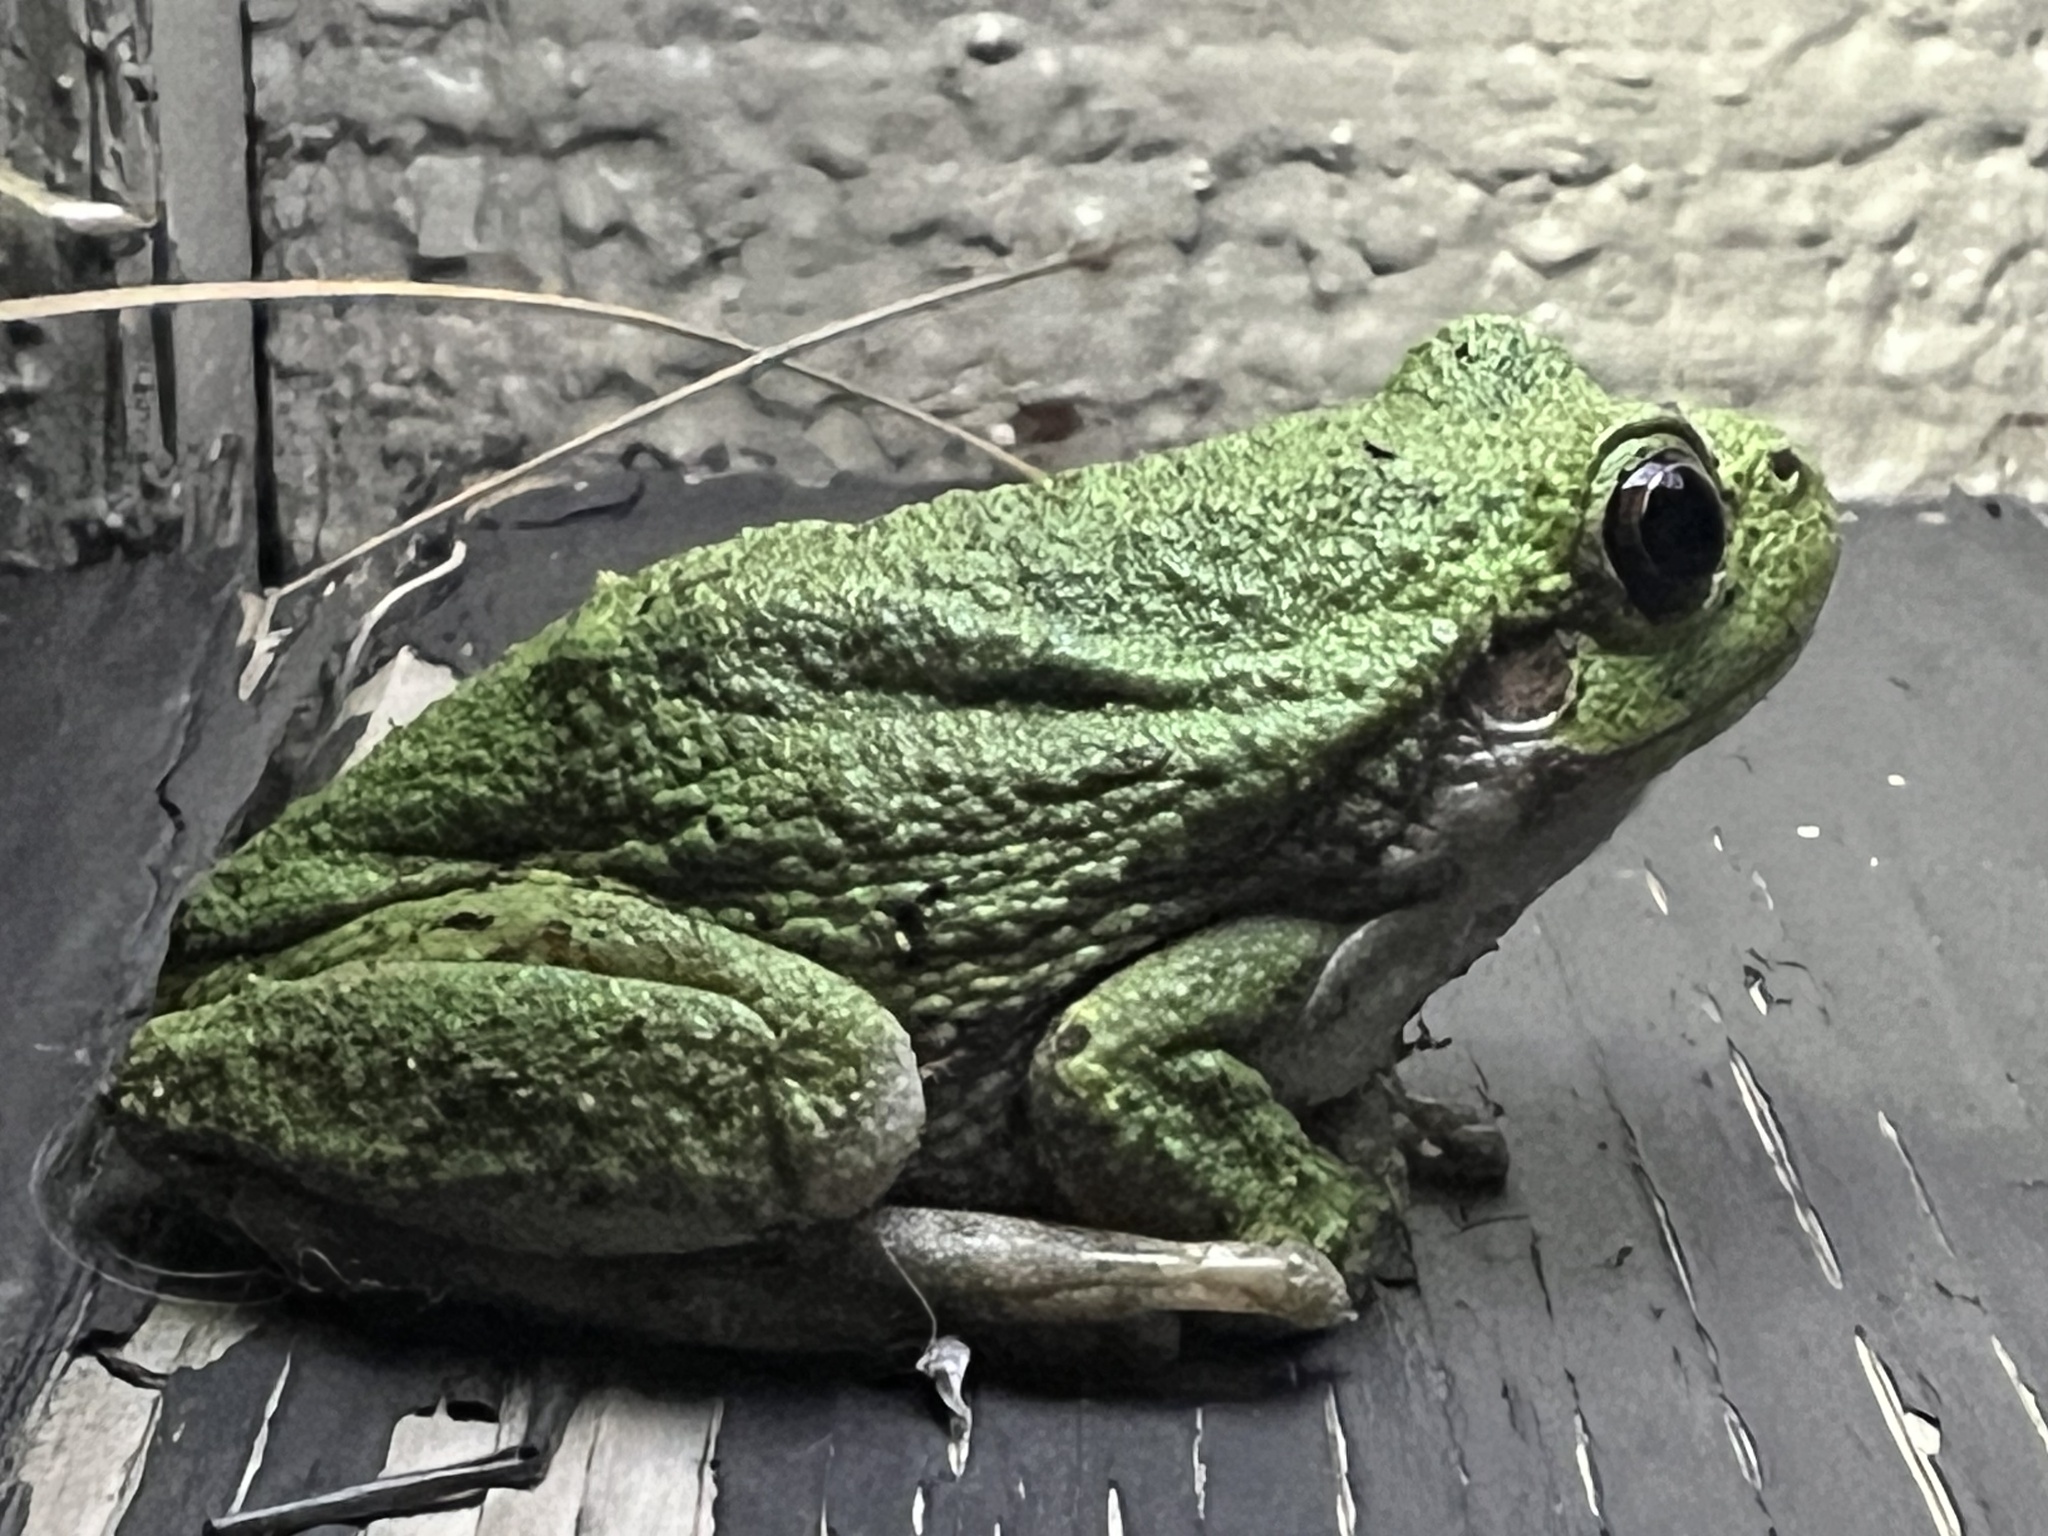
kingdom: Animalia
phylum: Chordata
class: Amphibia
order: Anura
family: Hylidae
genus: Hyla
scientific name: Hyla
